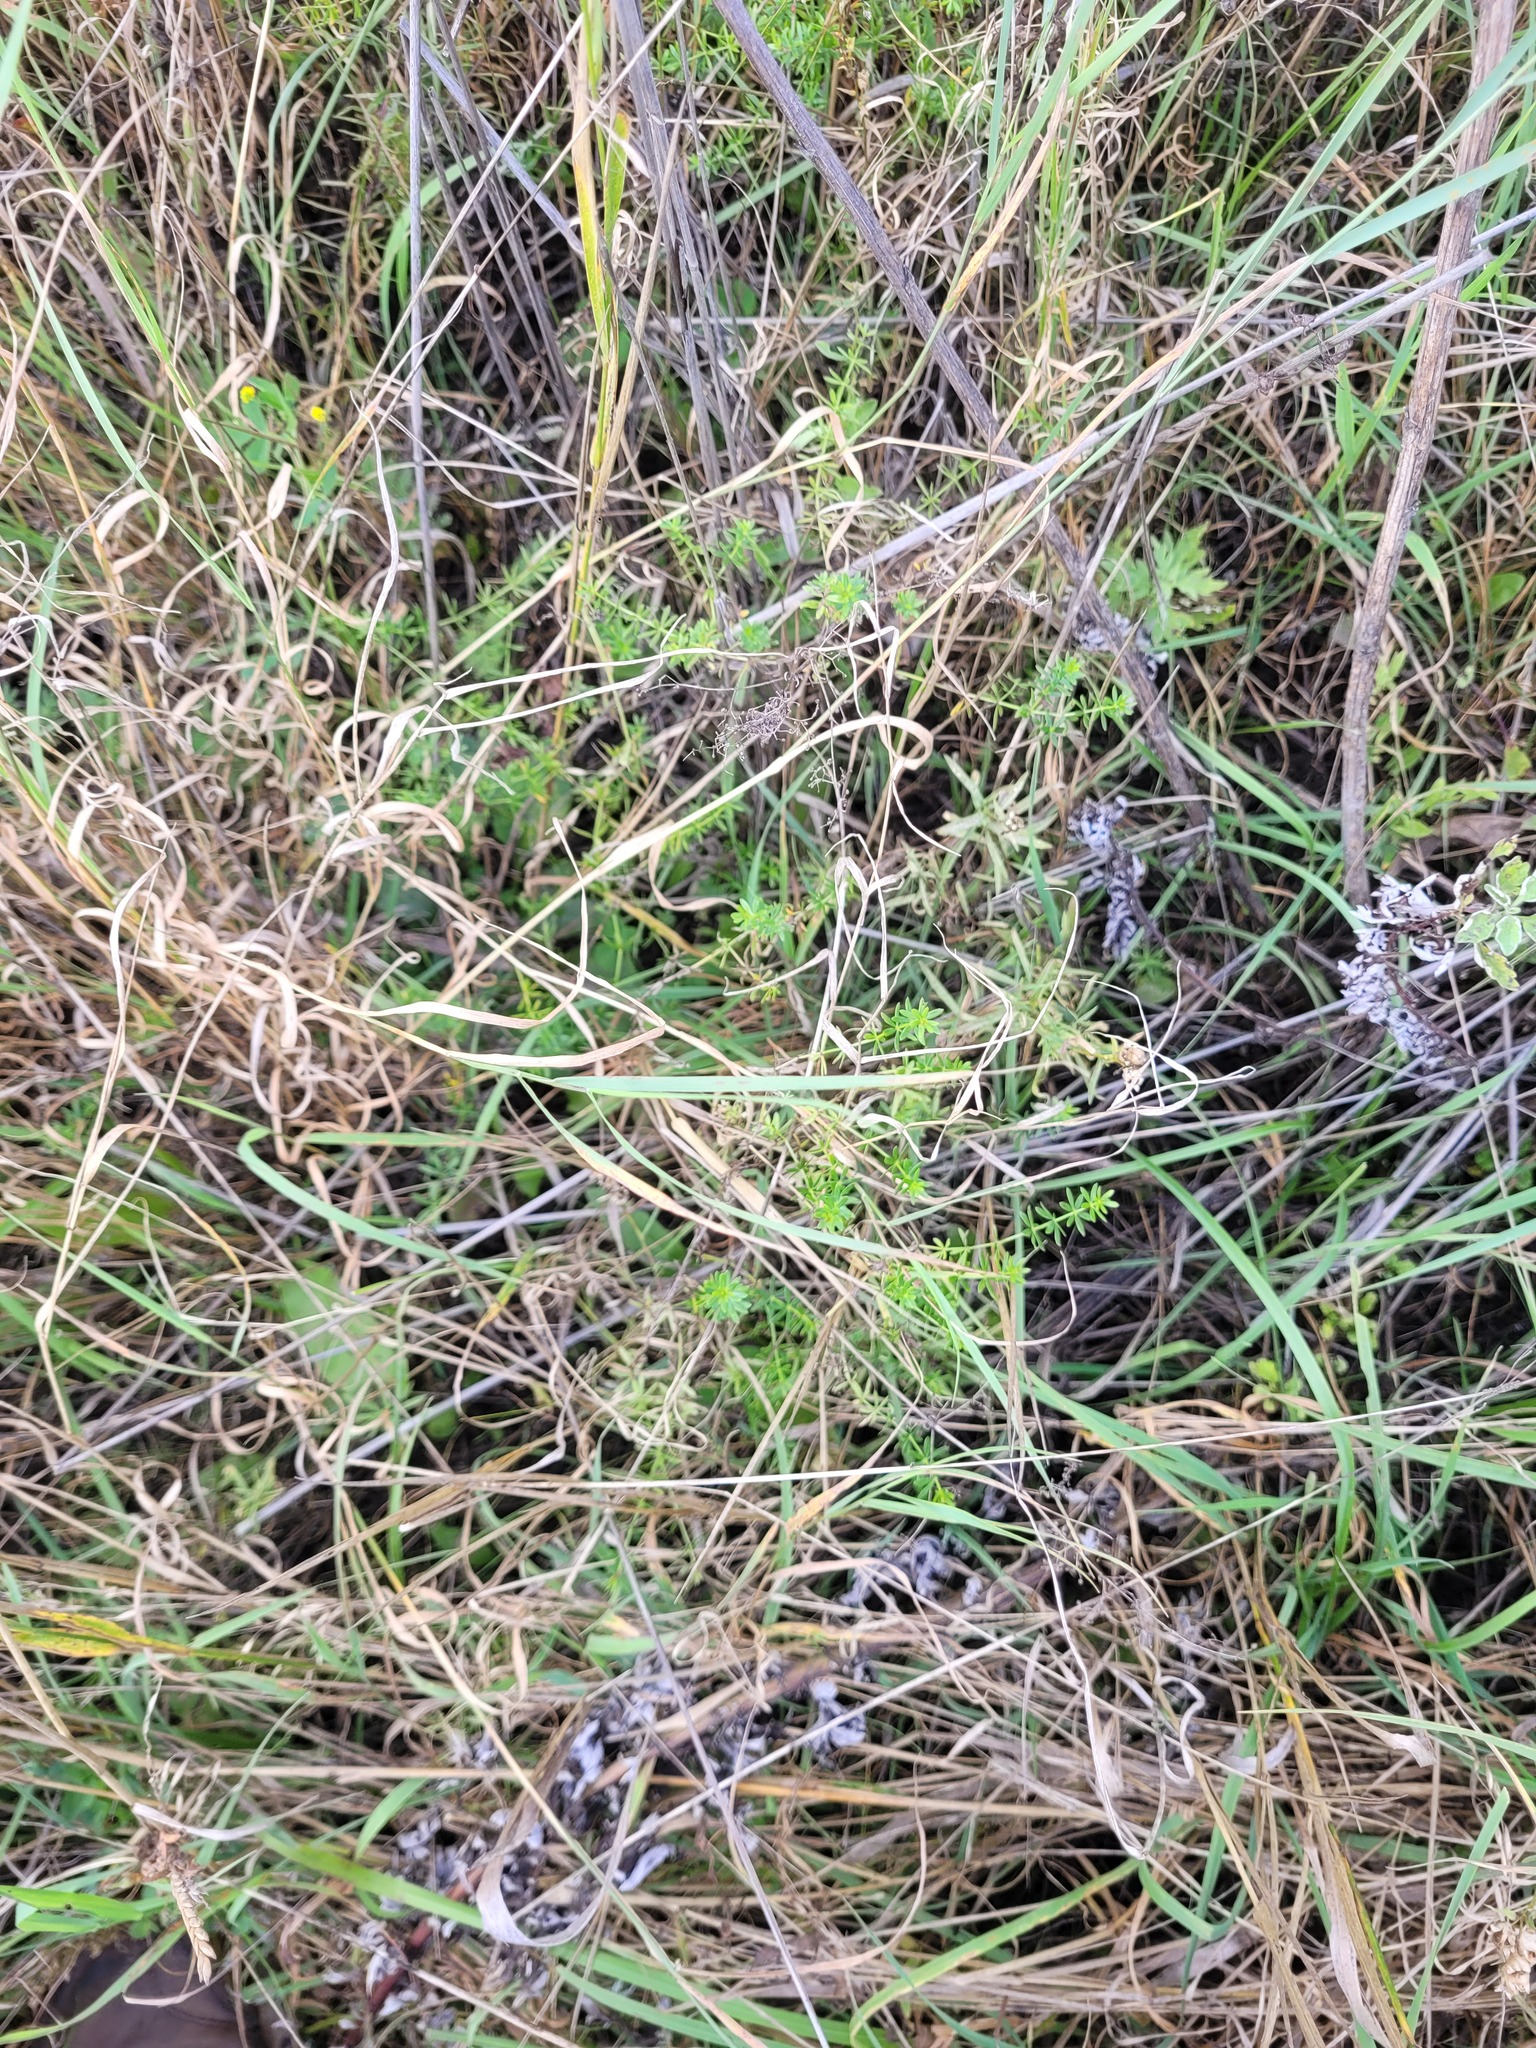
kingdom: Plantae
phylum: Tracheophyta
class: Magnoliopsida
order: Gentianales
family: Rubiaceae
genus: Galium
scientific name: Galium mollugo
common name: Hedge bedstraw
